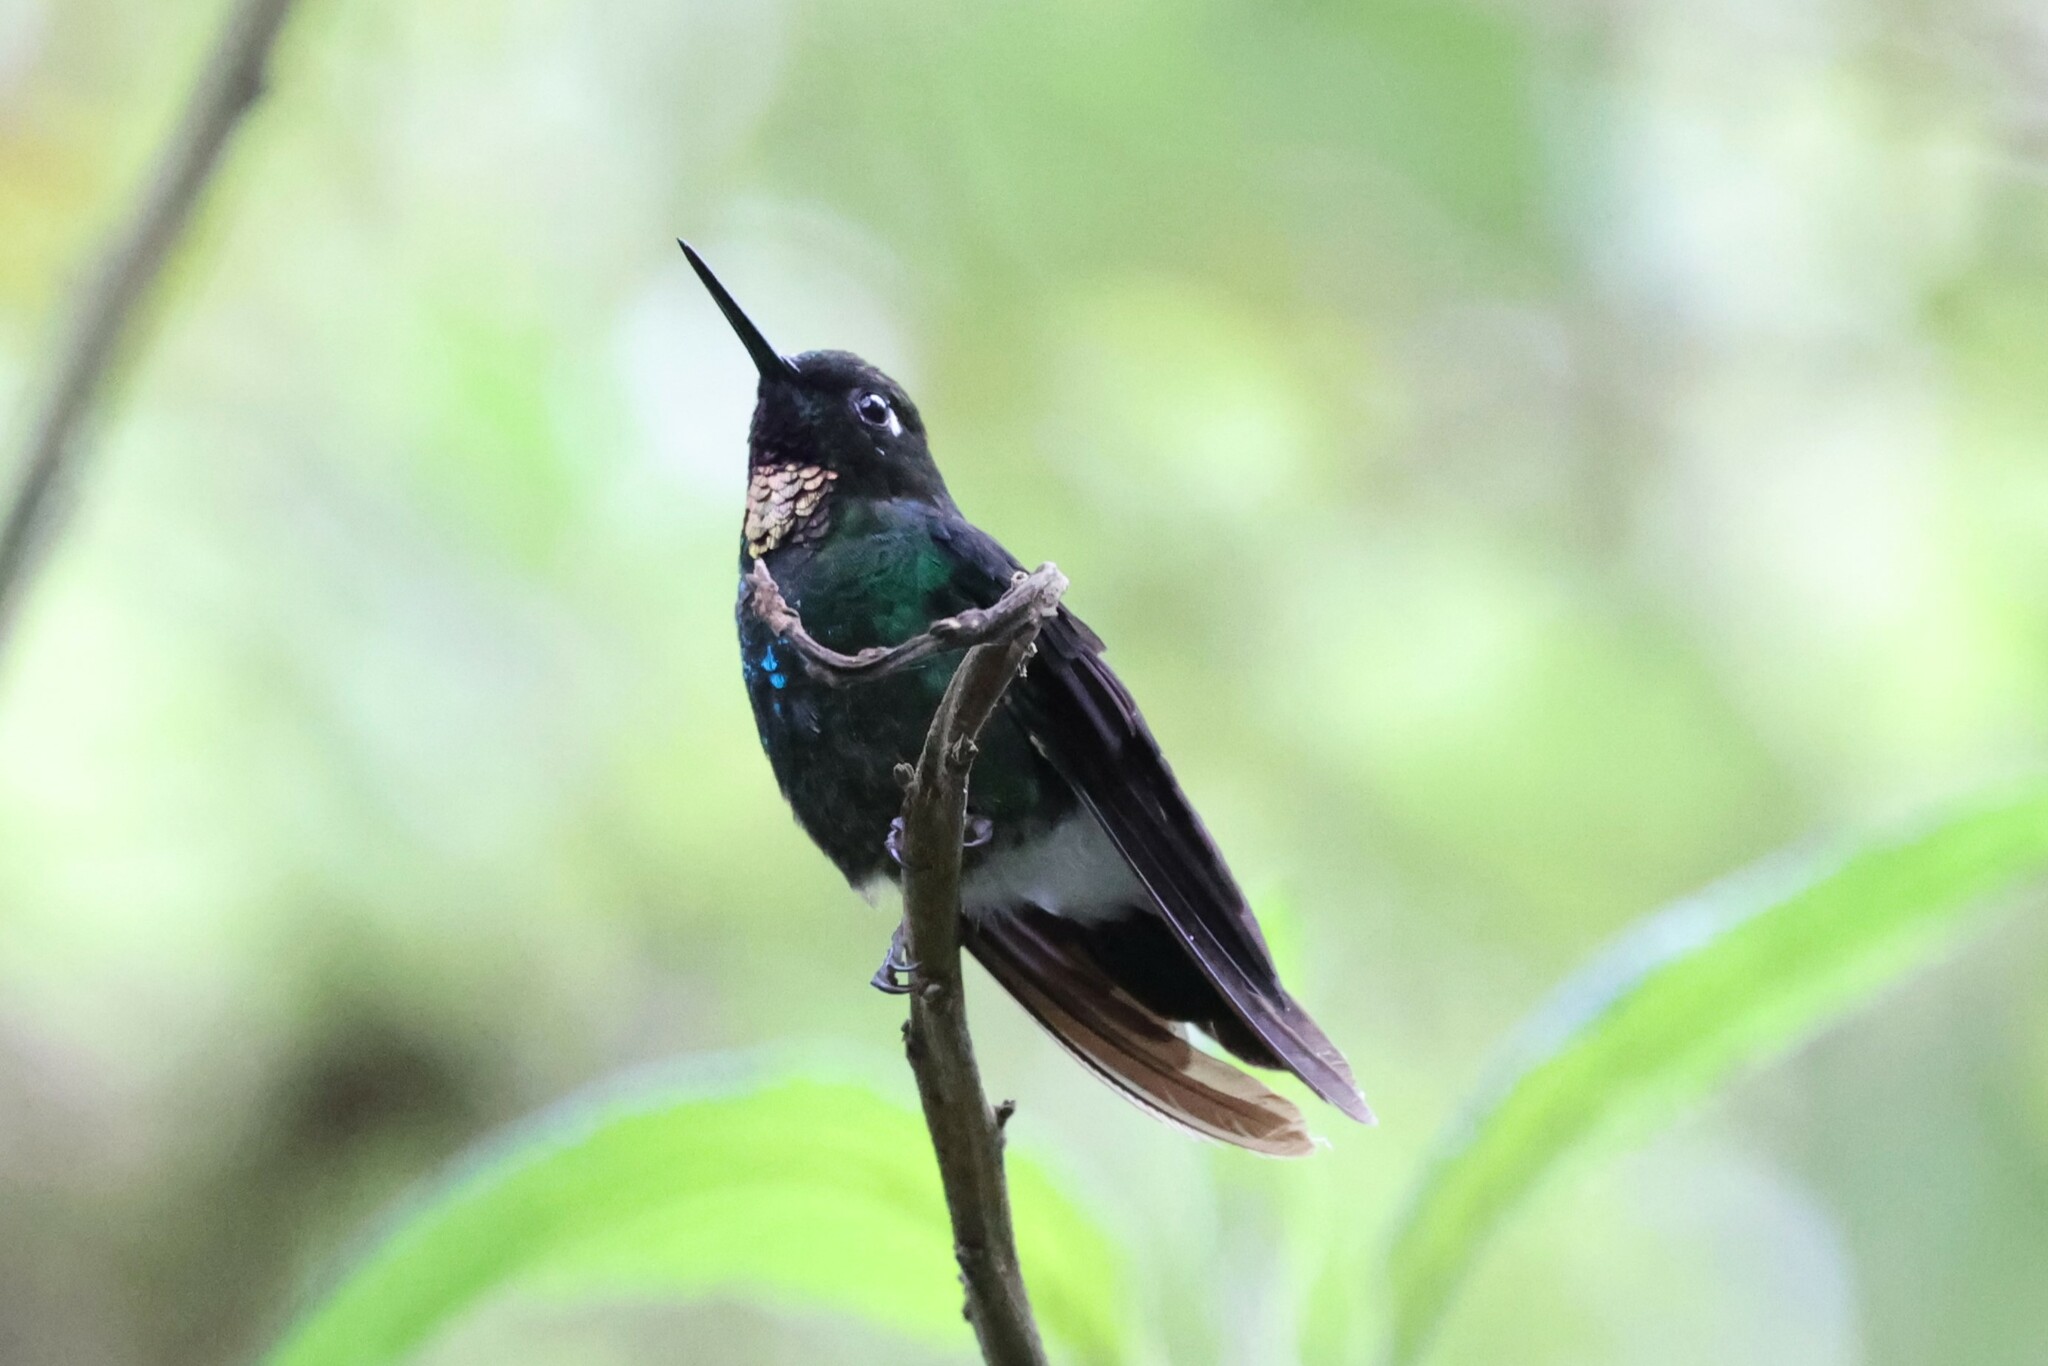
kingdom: Animalia
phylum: Chordata
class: Aves
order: Apodiformes
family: Trochilidae
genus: Heliangelus
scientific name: Heliangelus exortis
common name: Tourmaline sunangel
